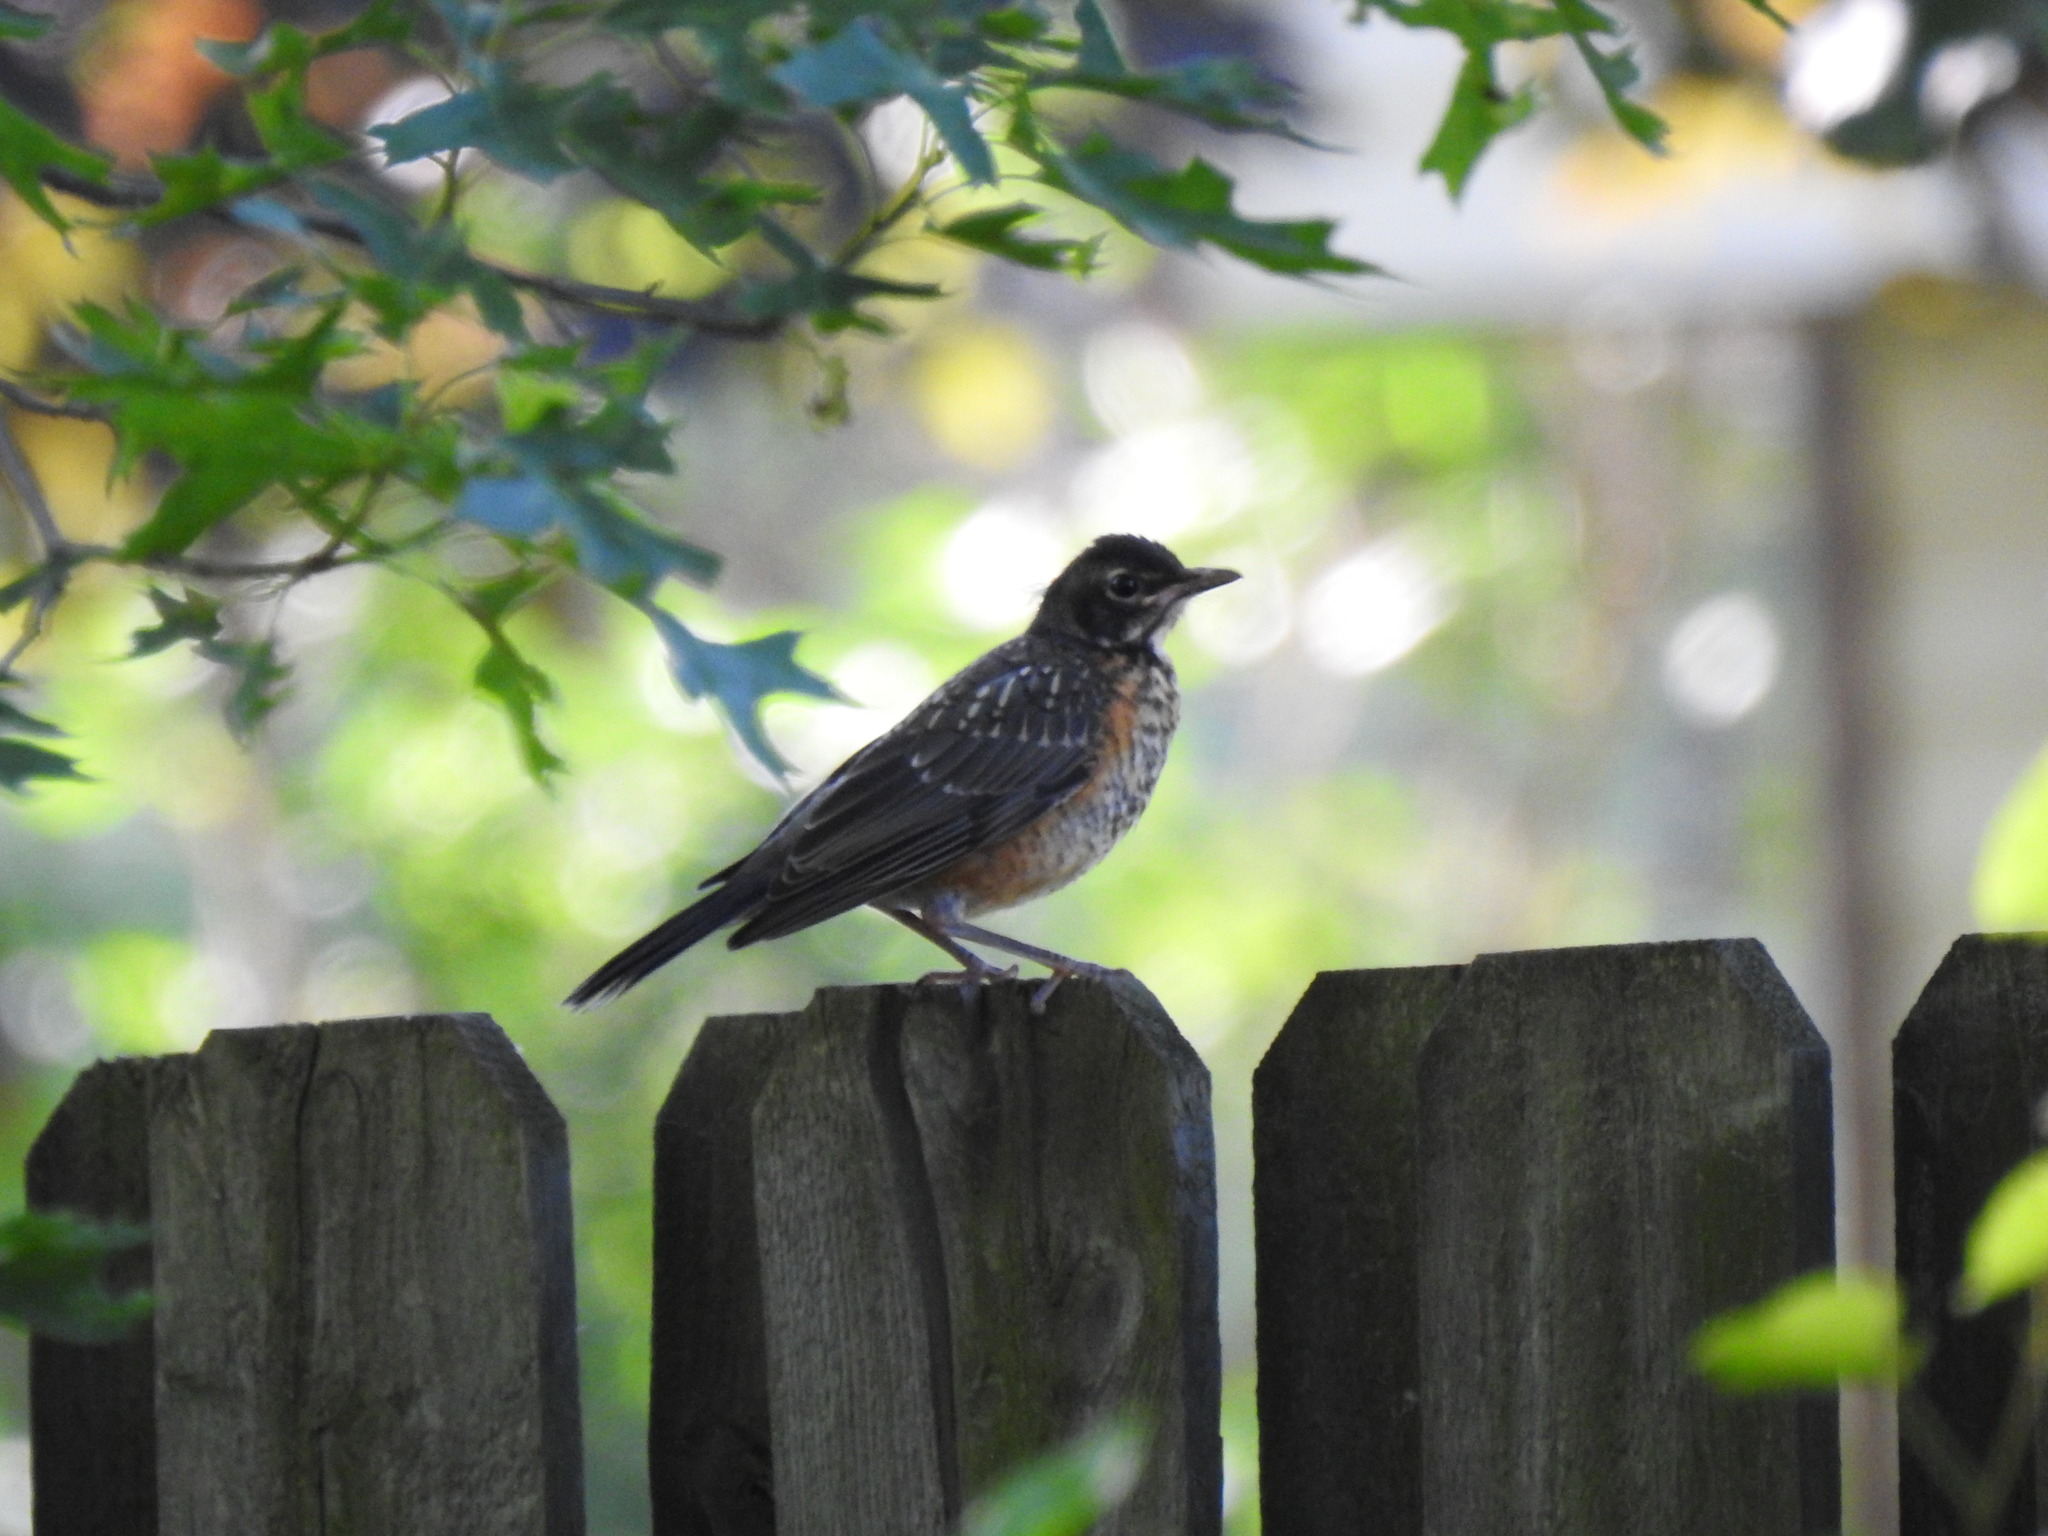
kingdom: Animalia
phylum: Chordata
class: Aves
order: Passeriformes
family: Turdidae
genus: Turdus
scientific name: Turdus migratorius
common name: American robin
